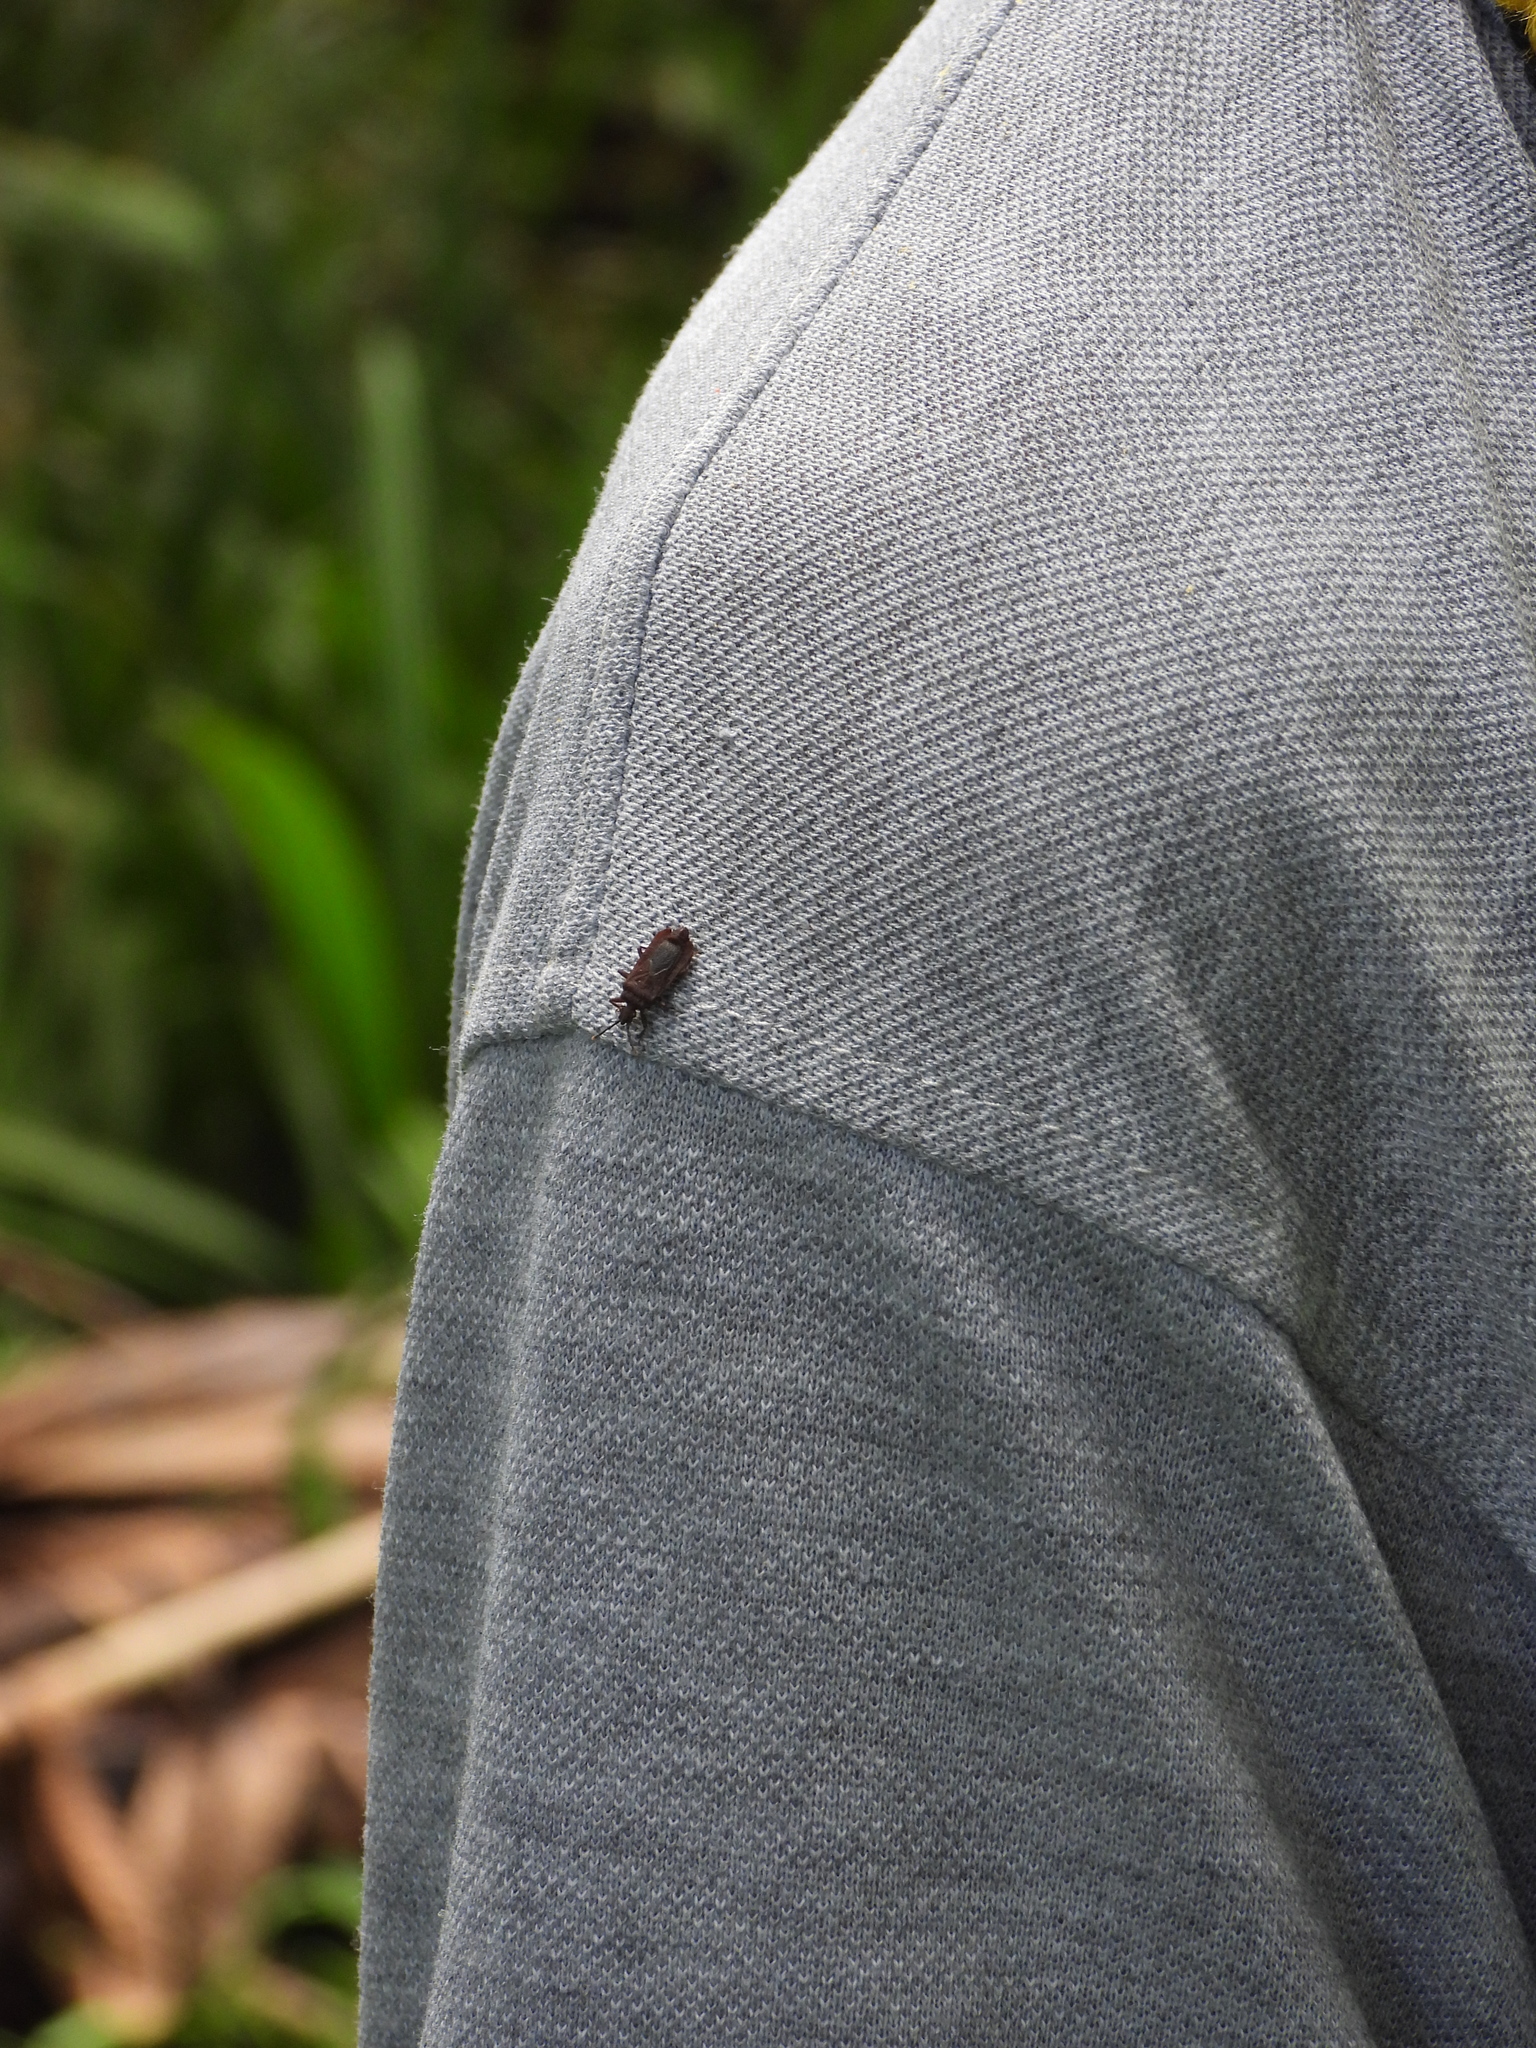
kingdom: Animalia
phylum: Arthropoda
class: Insecta
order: Hemiptera
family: Aradidae
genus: Brachyrhynchus
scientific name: Brachyrhynchus membranaceus
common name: Aradid flat bug
